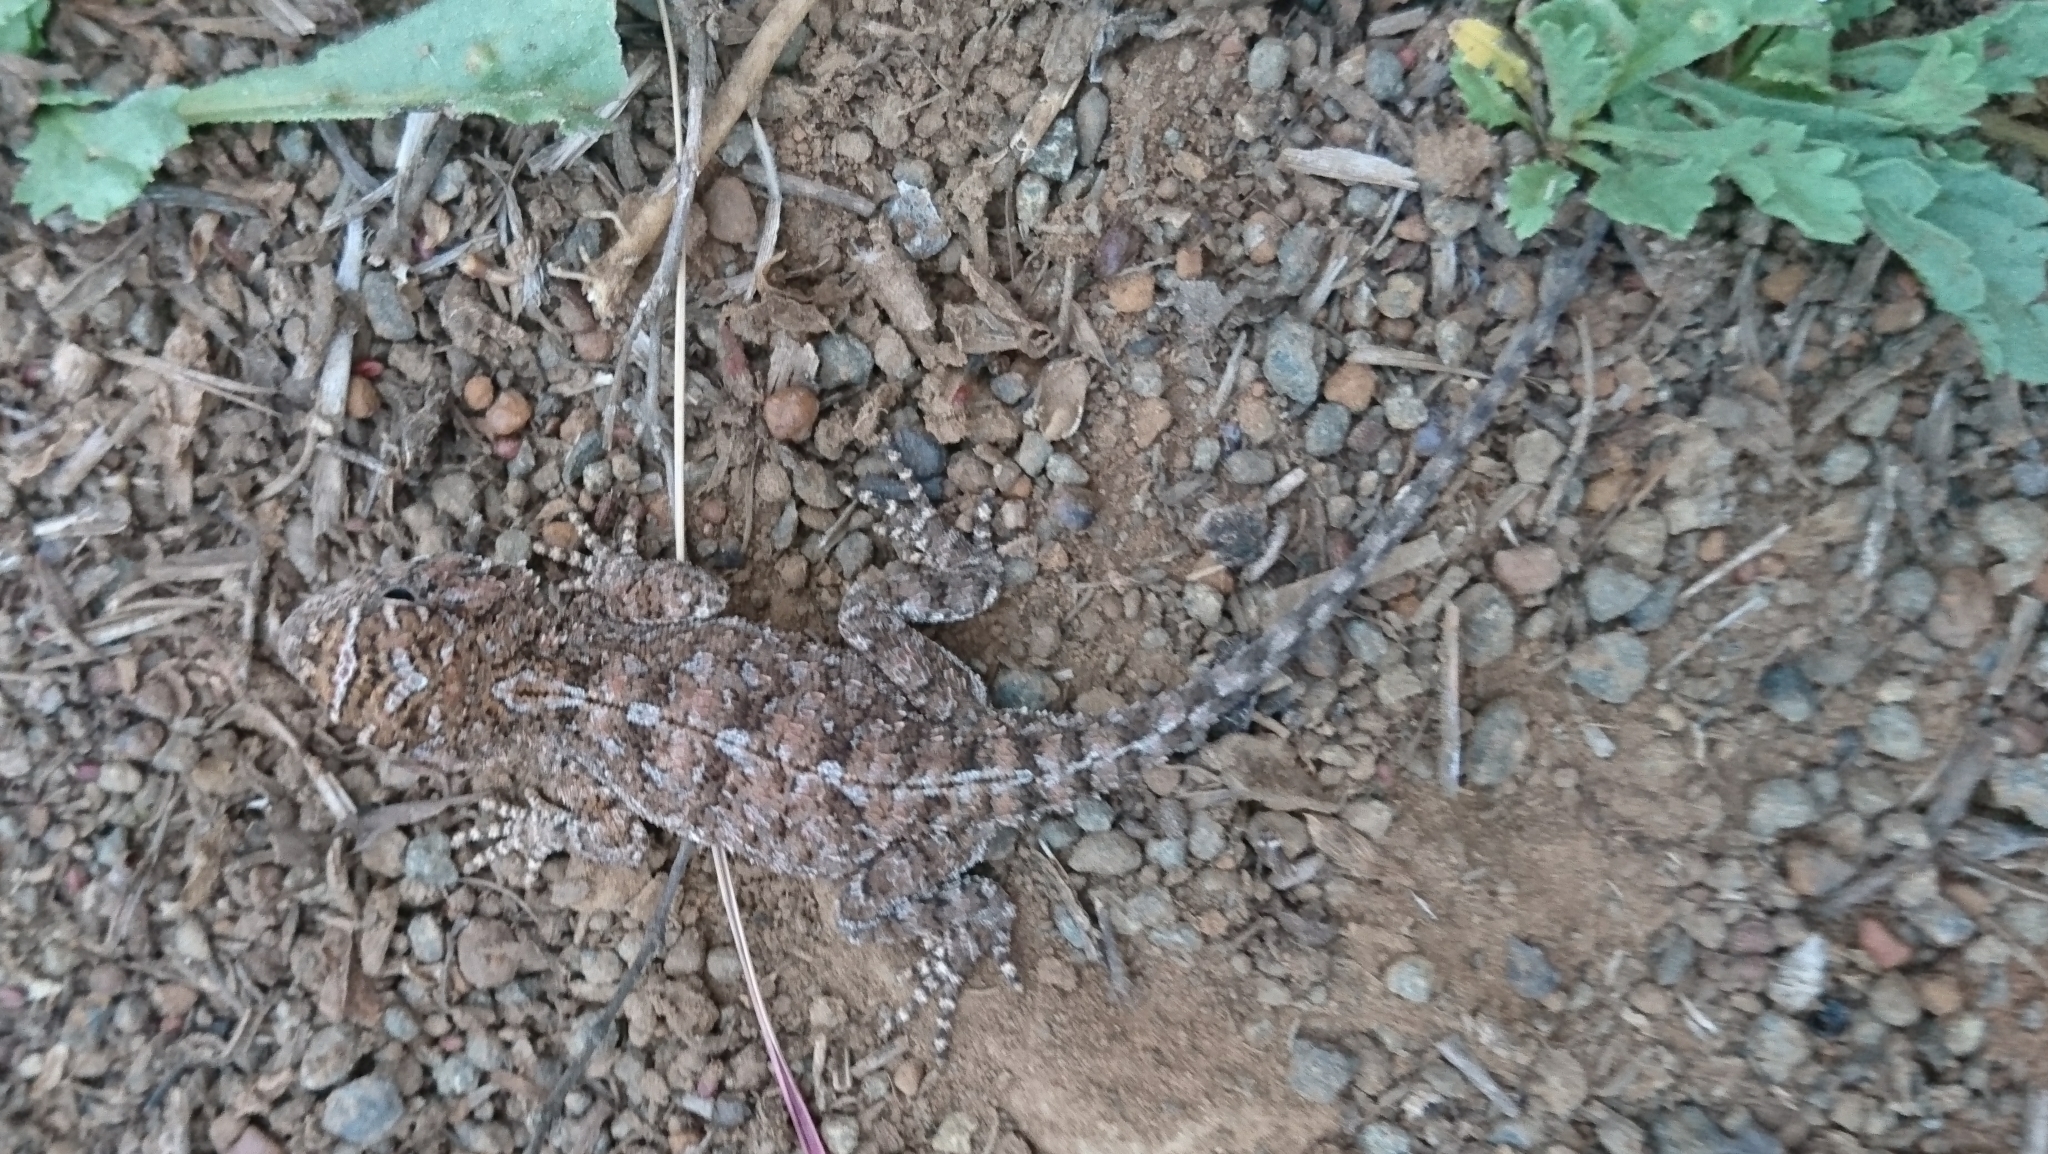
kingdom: Animalia
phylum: Chordata
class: Squamata
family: Agamidae
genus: Agama
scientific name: Agama aculeata
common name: Common ground agama
